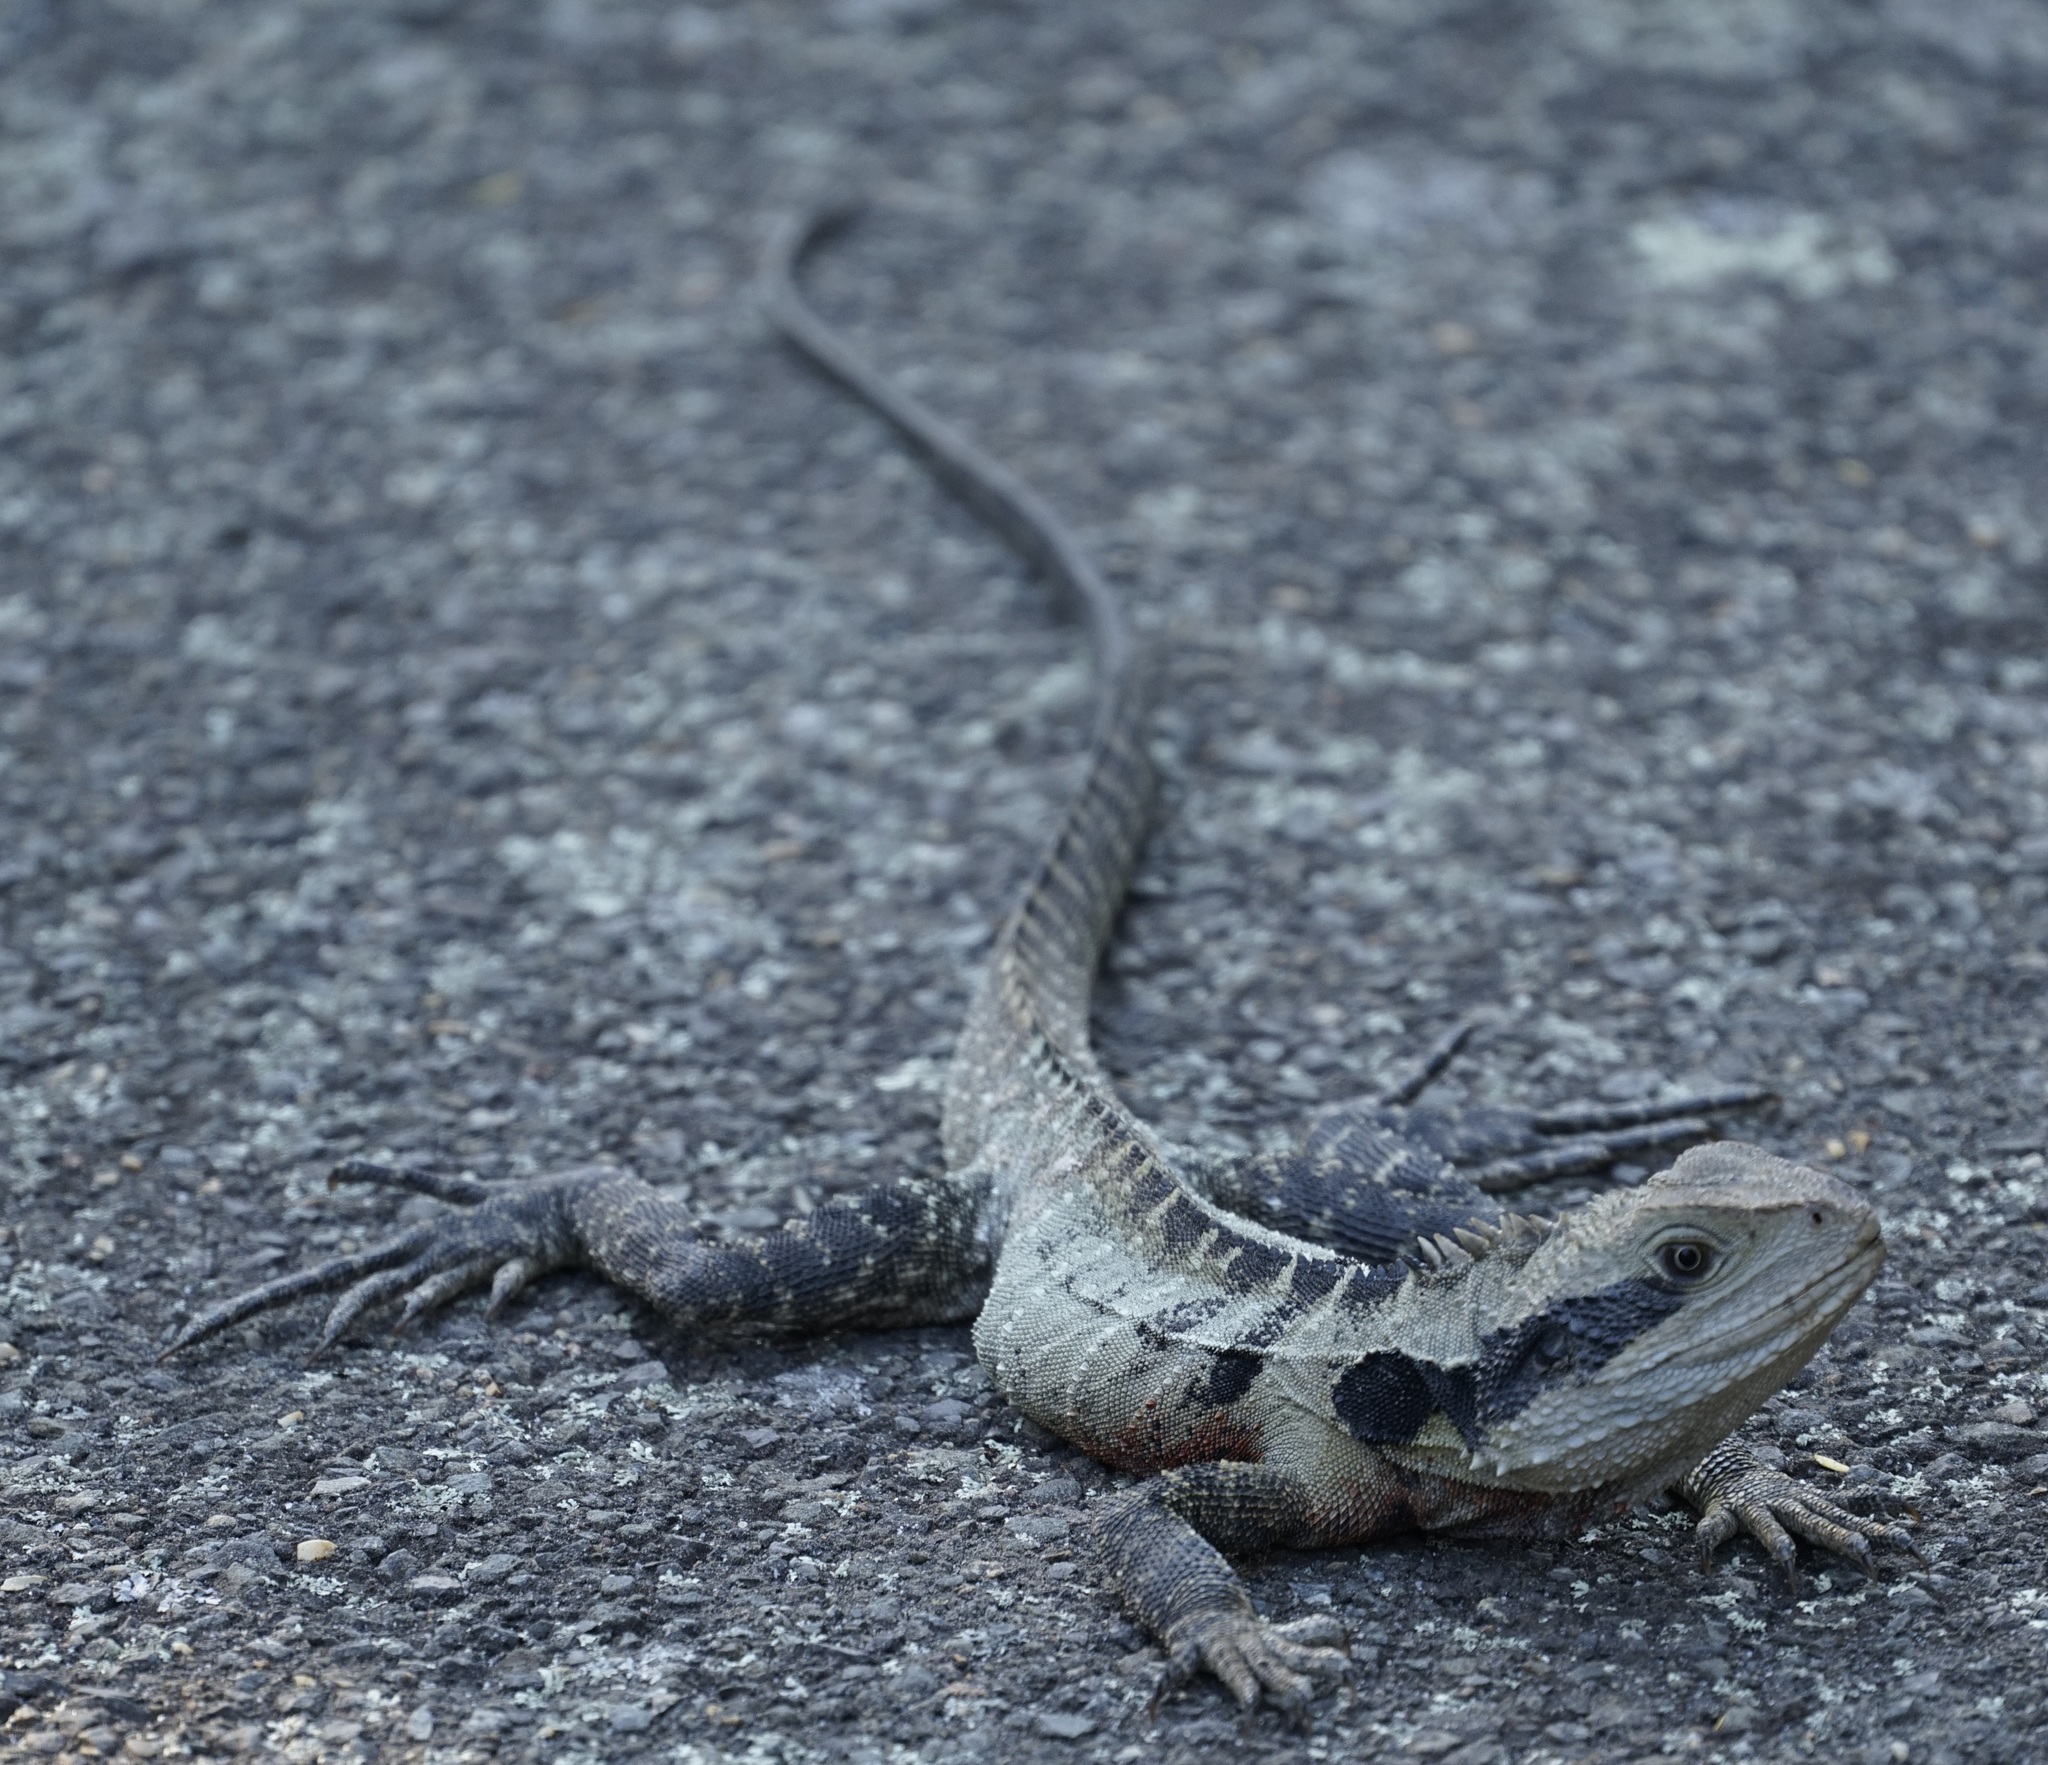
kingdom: Animalia
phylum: Chordata
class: Squamata
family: Agamidae
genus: Intellagama
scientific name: Intellagama lesueurii
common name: Eastern water dragon
